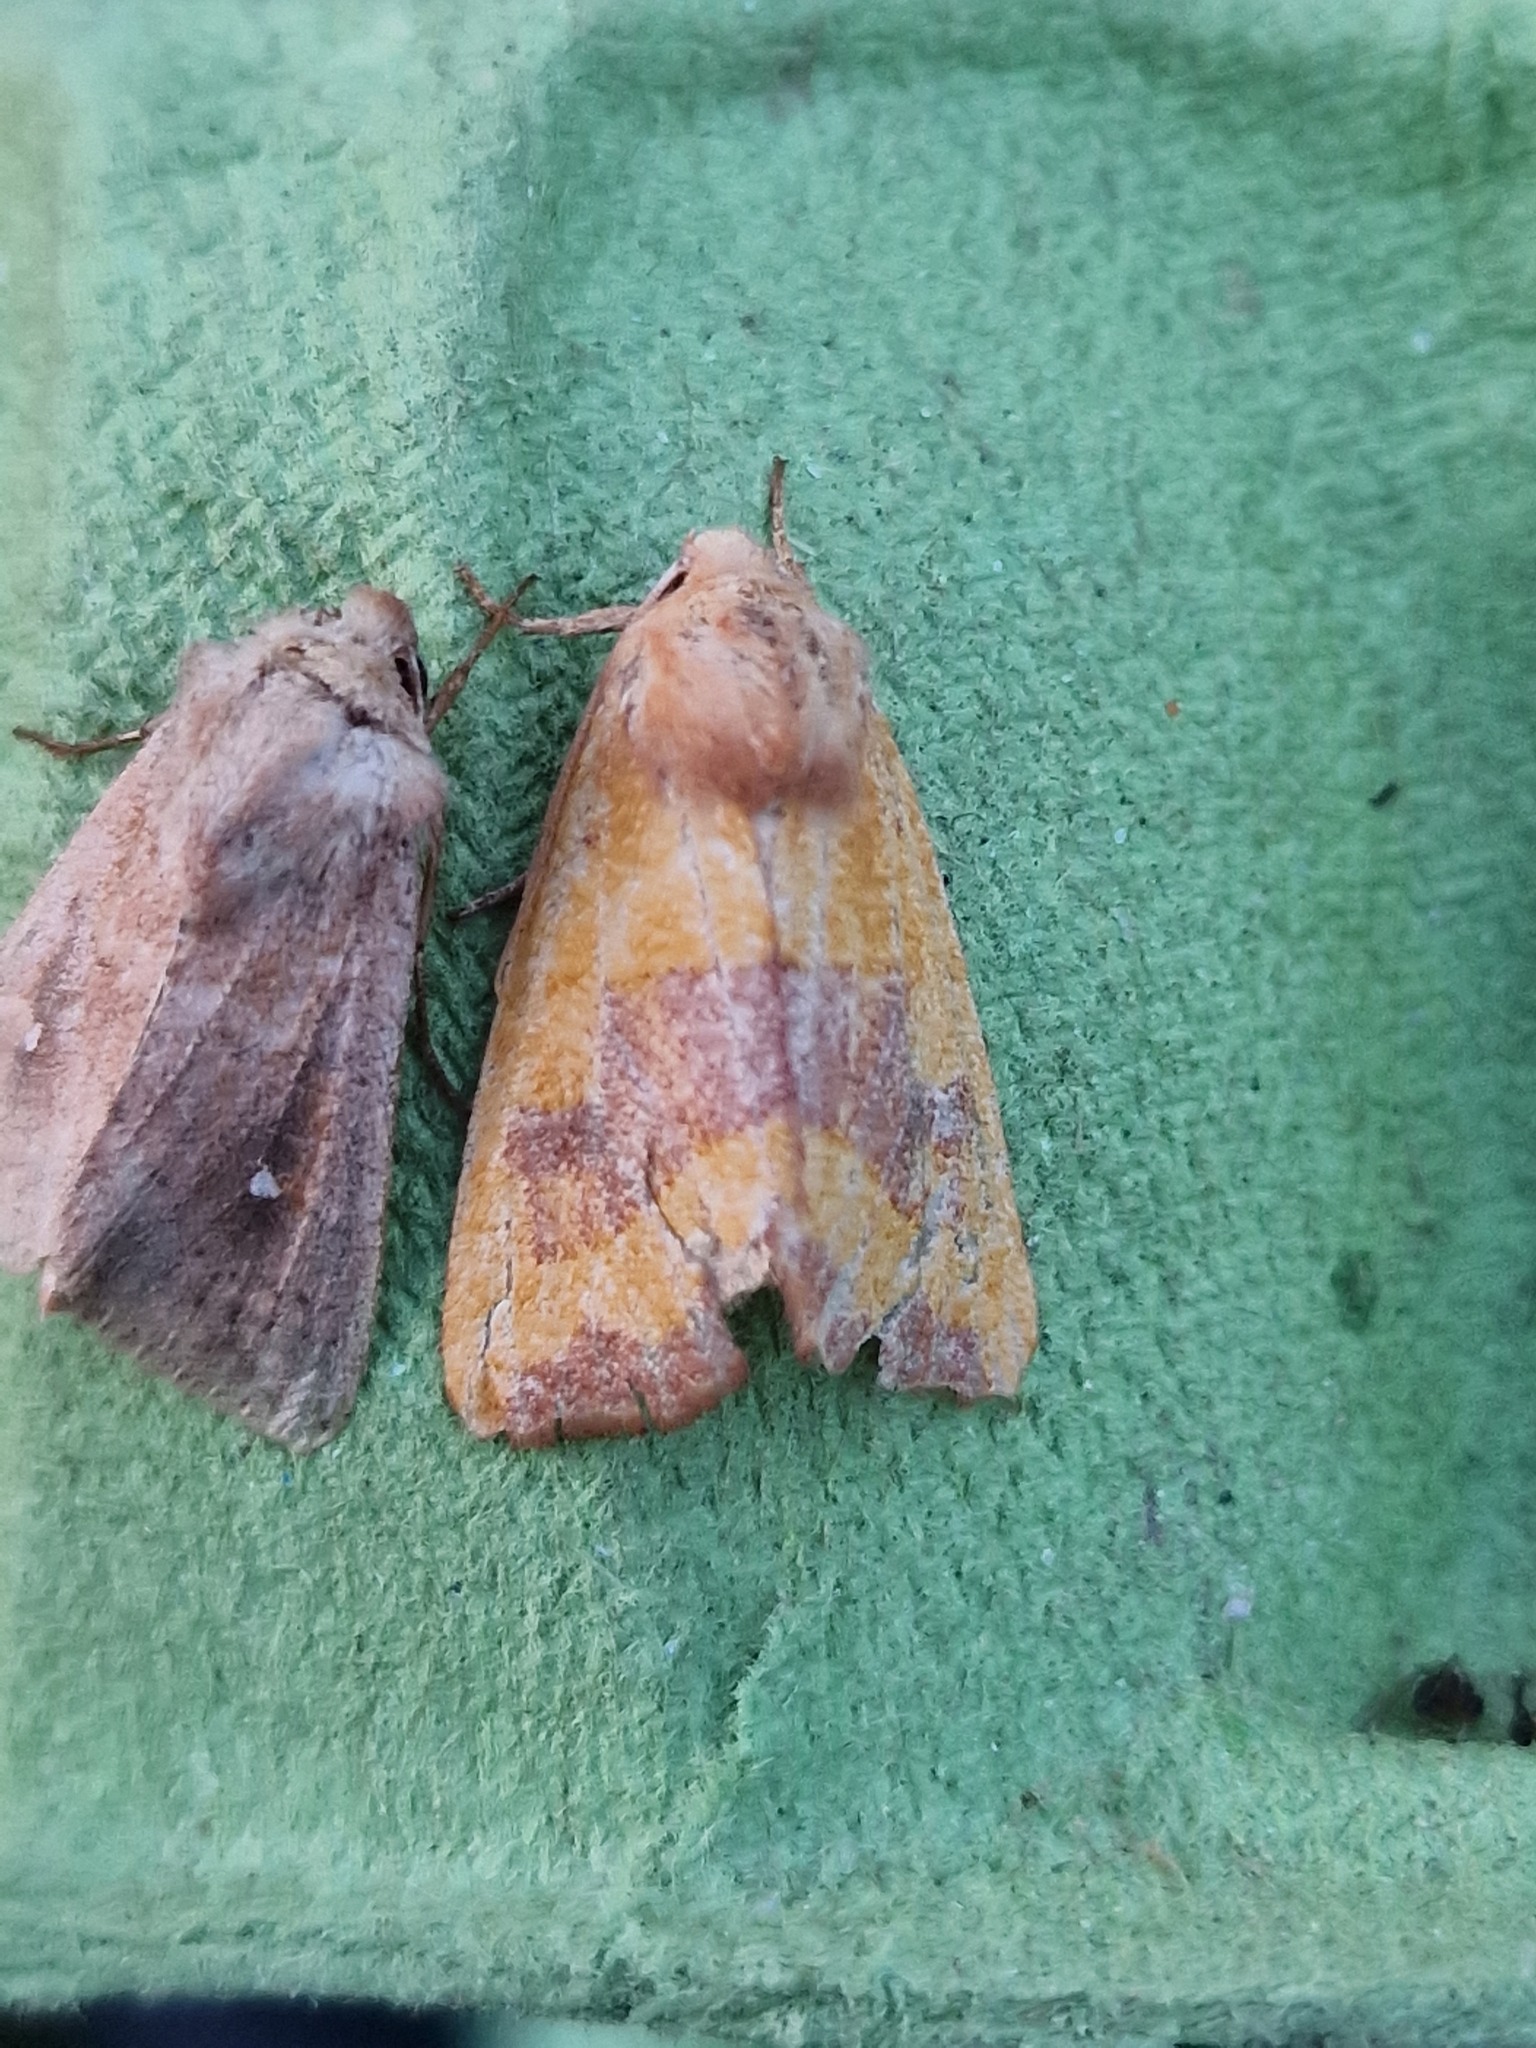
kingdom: Animalia
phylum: Arthropoda
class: Insecta
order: Lepidoptera
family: Noctuidae
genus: Atethmia
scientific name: Atethmia centrago
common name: Centre-barred sallow
